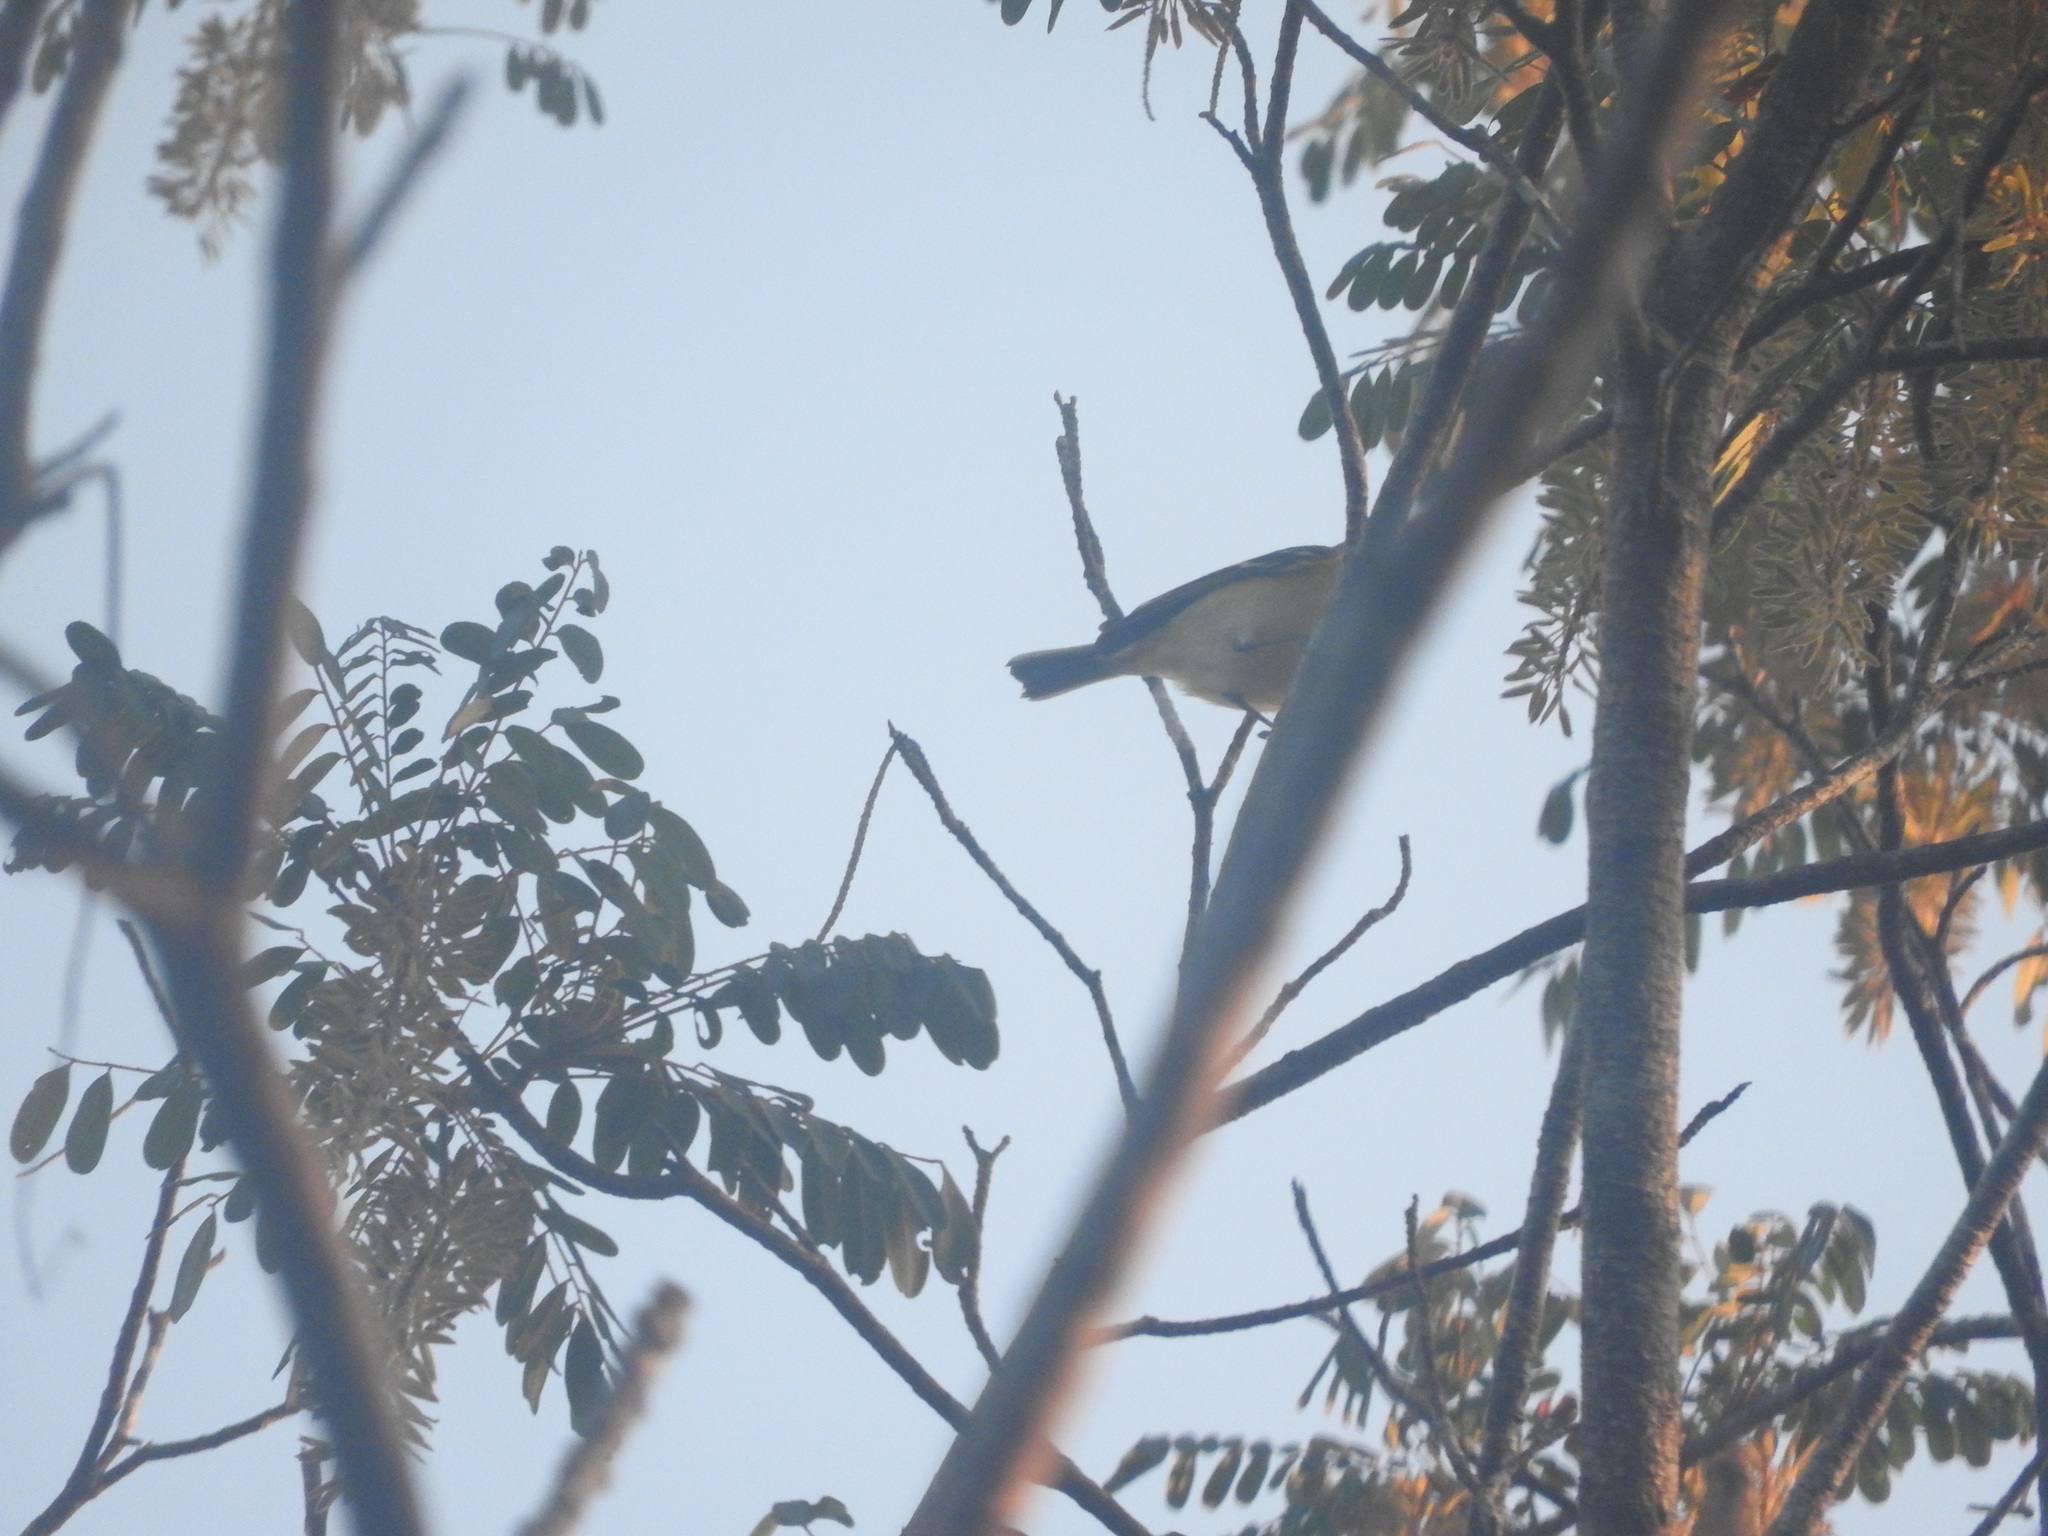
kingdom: Animalia
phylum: Chordata
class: Aves
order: Passeriformes
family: Vireonidae
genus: Vireo
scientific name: Vireo griseus
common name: White-eyed vireo
